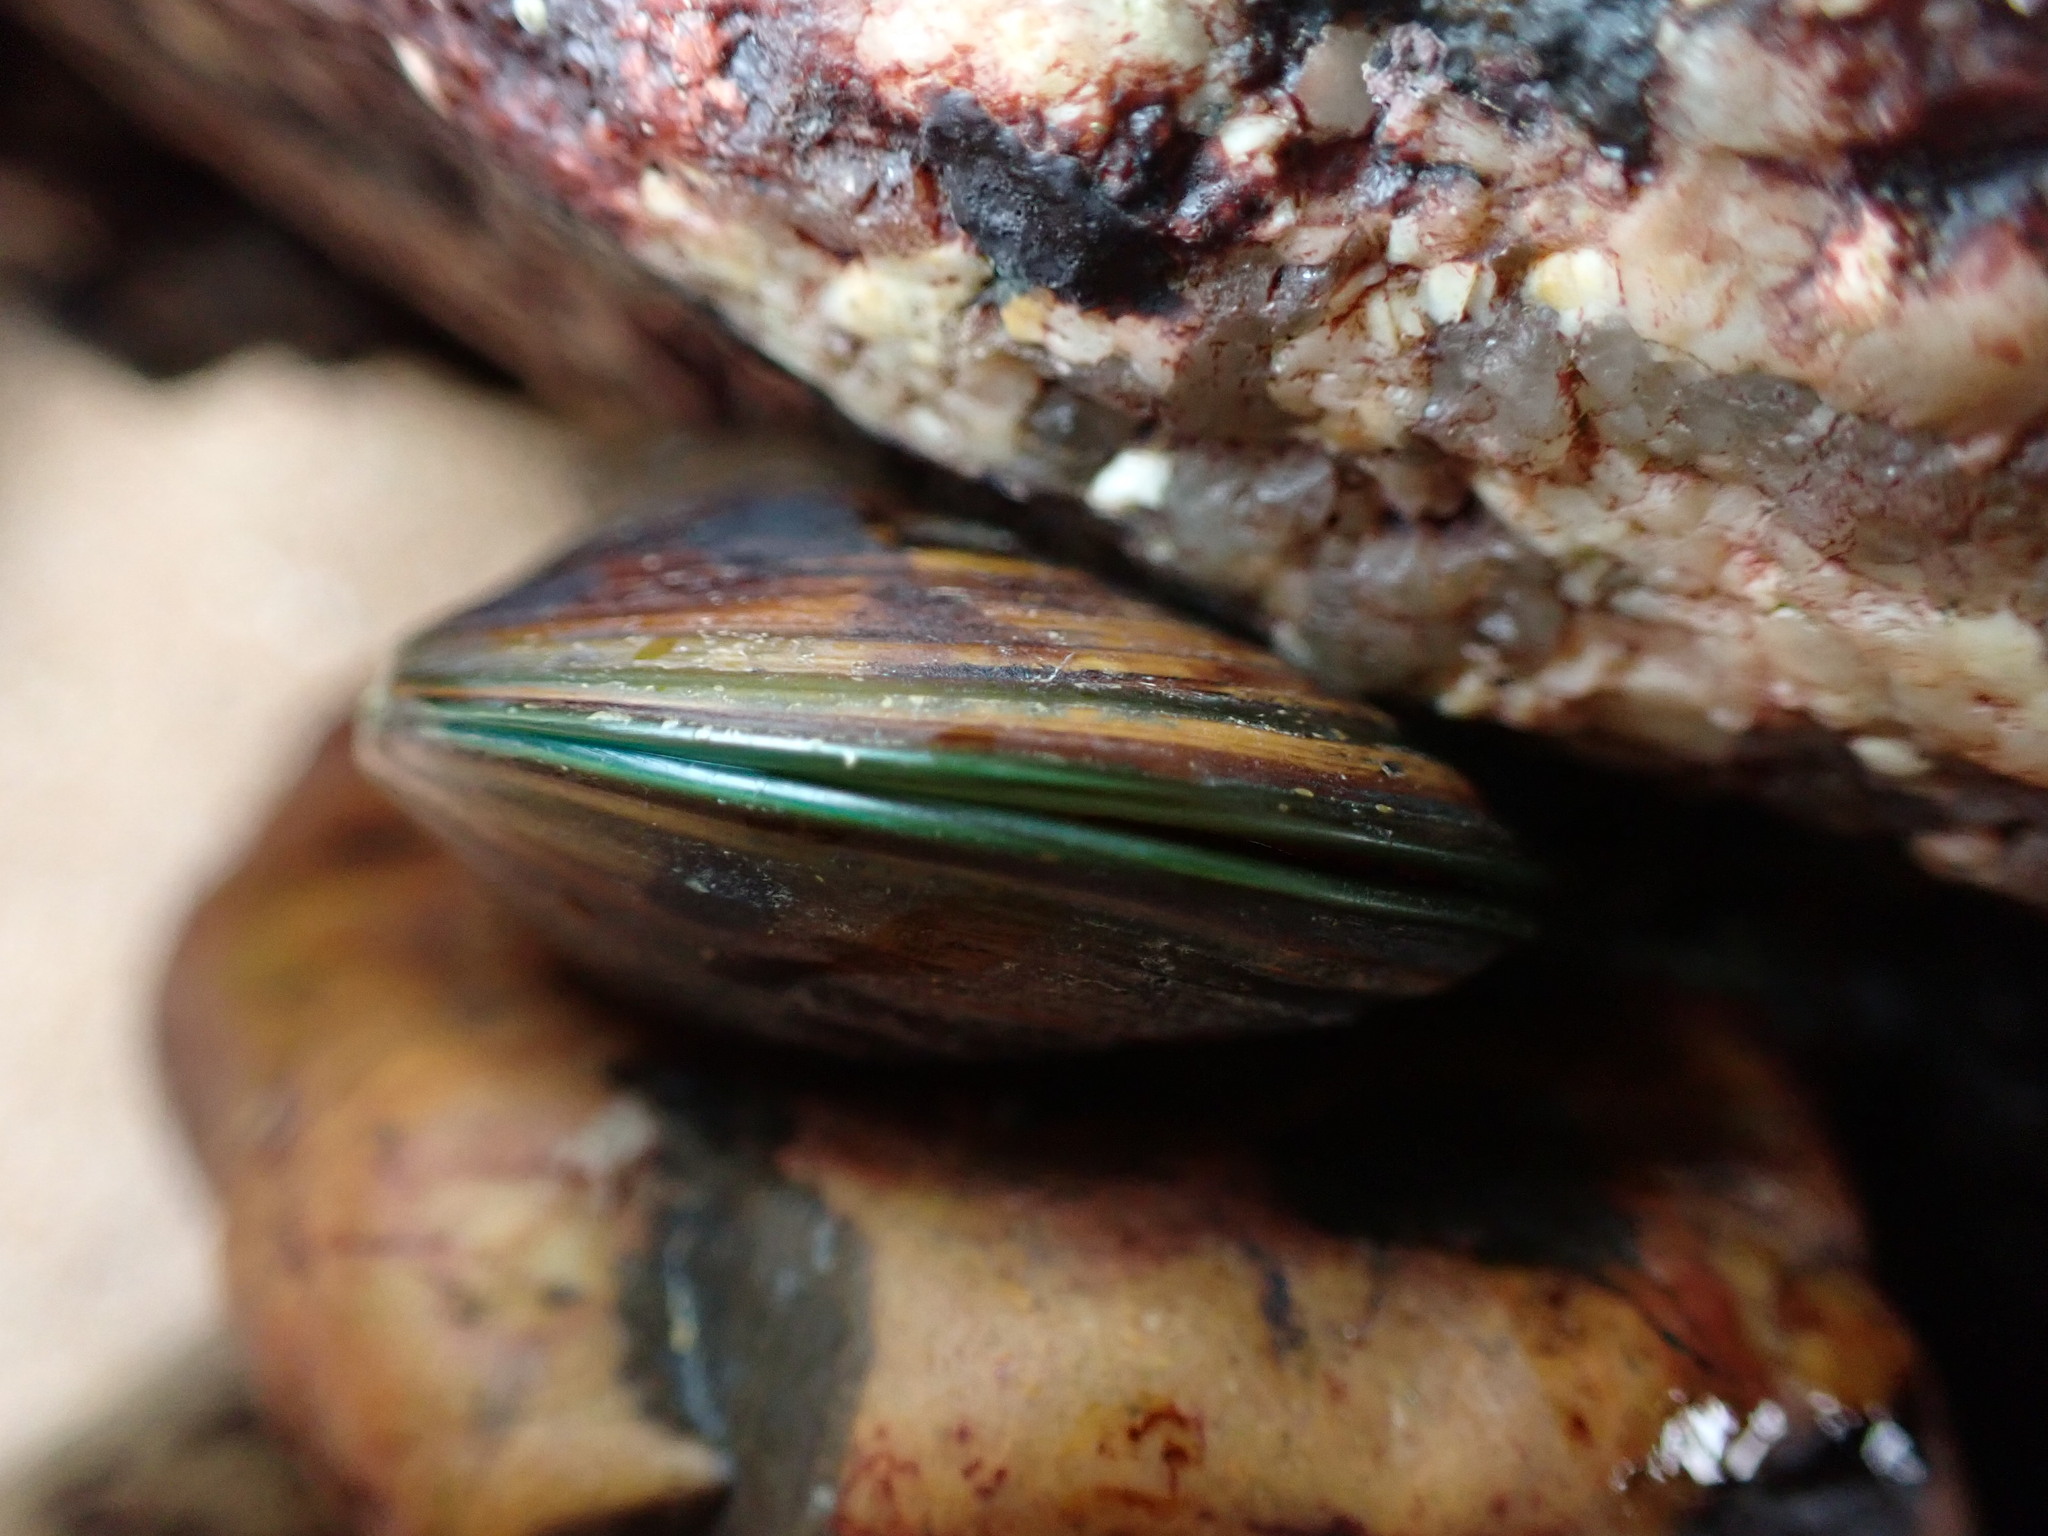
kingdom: Animalia
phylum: Mollusca
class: Bivalvia
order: Mytilida
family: Mytilidae
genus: Perna
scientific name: Perna viridis
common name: Green mussel
